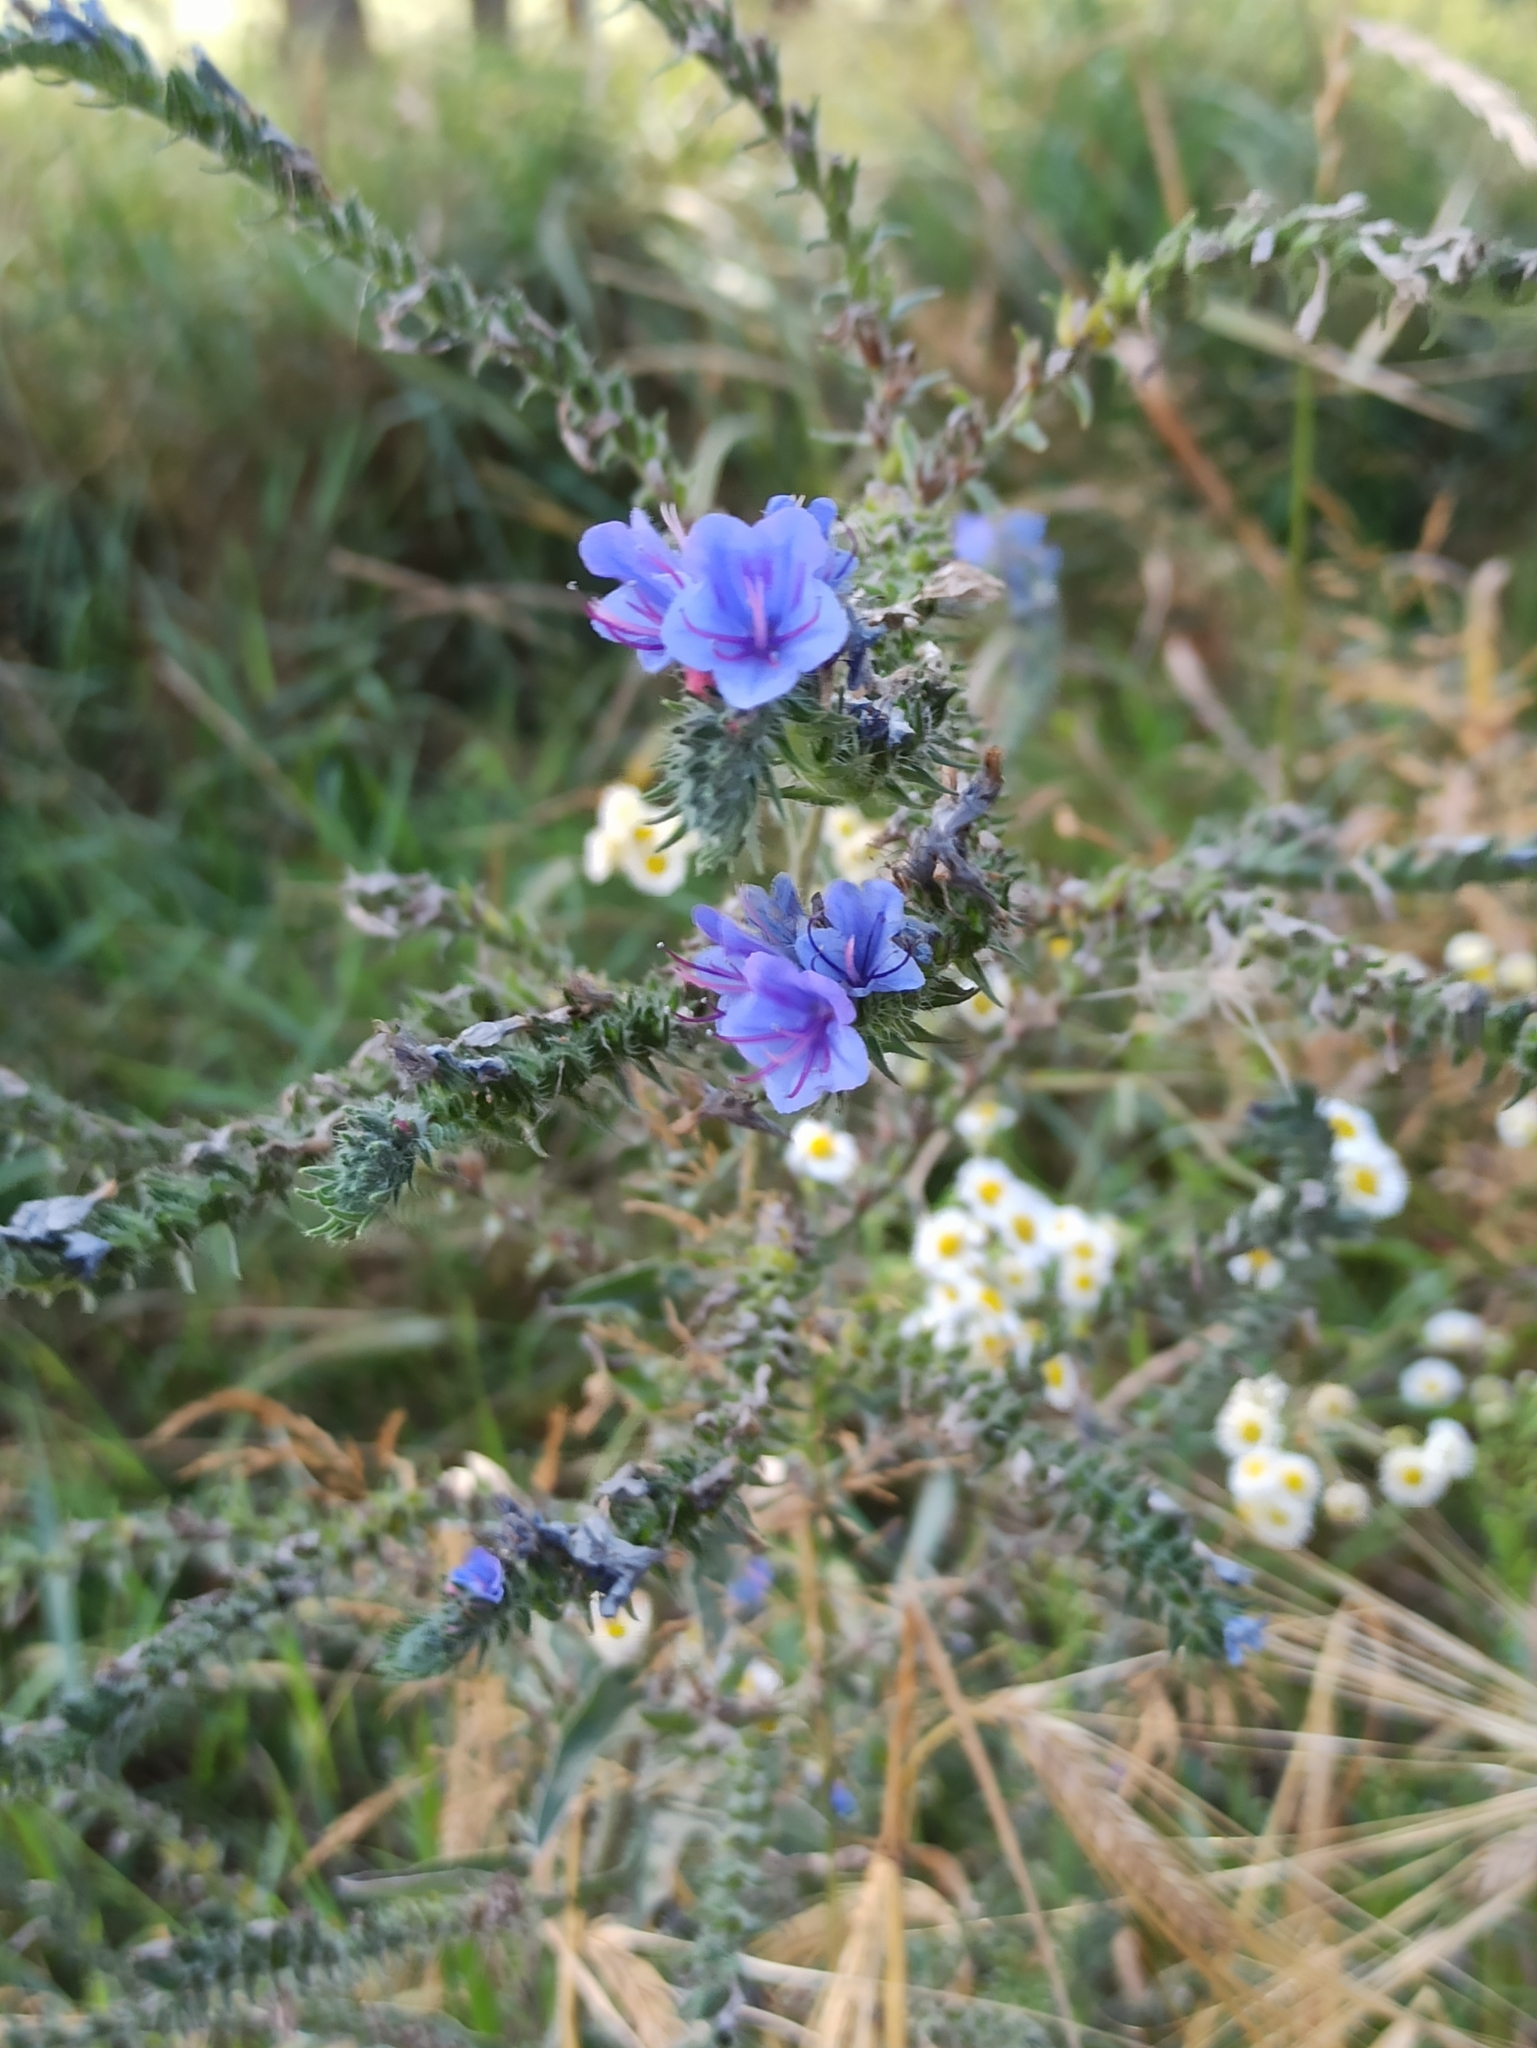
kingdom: Plantae
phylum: Tracheophyta
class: Magnoliopsida
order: Boraginales
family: Boraginaceae
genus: Echium
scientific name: Echium vulgare
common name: Common viper's bugloss
